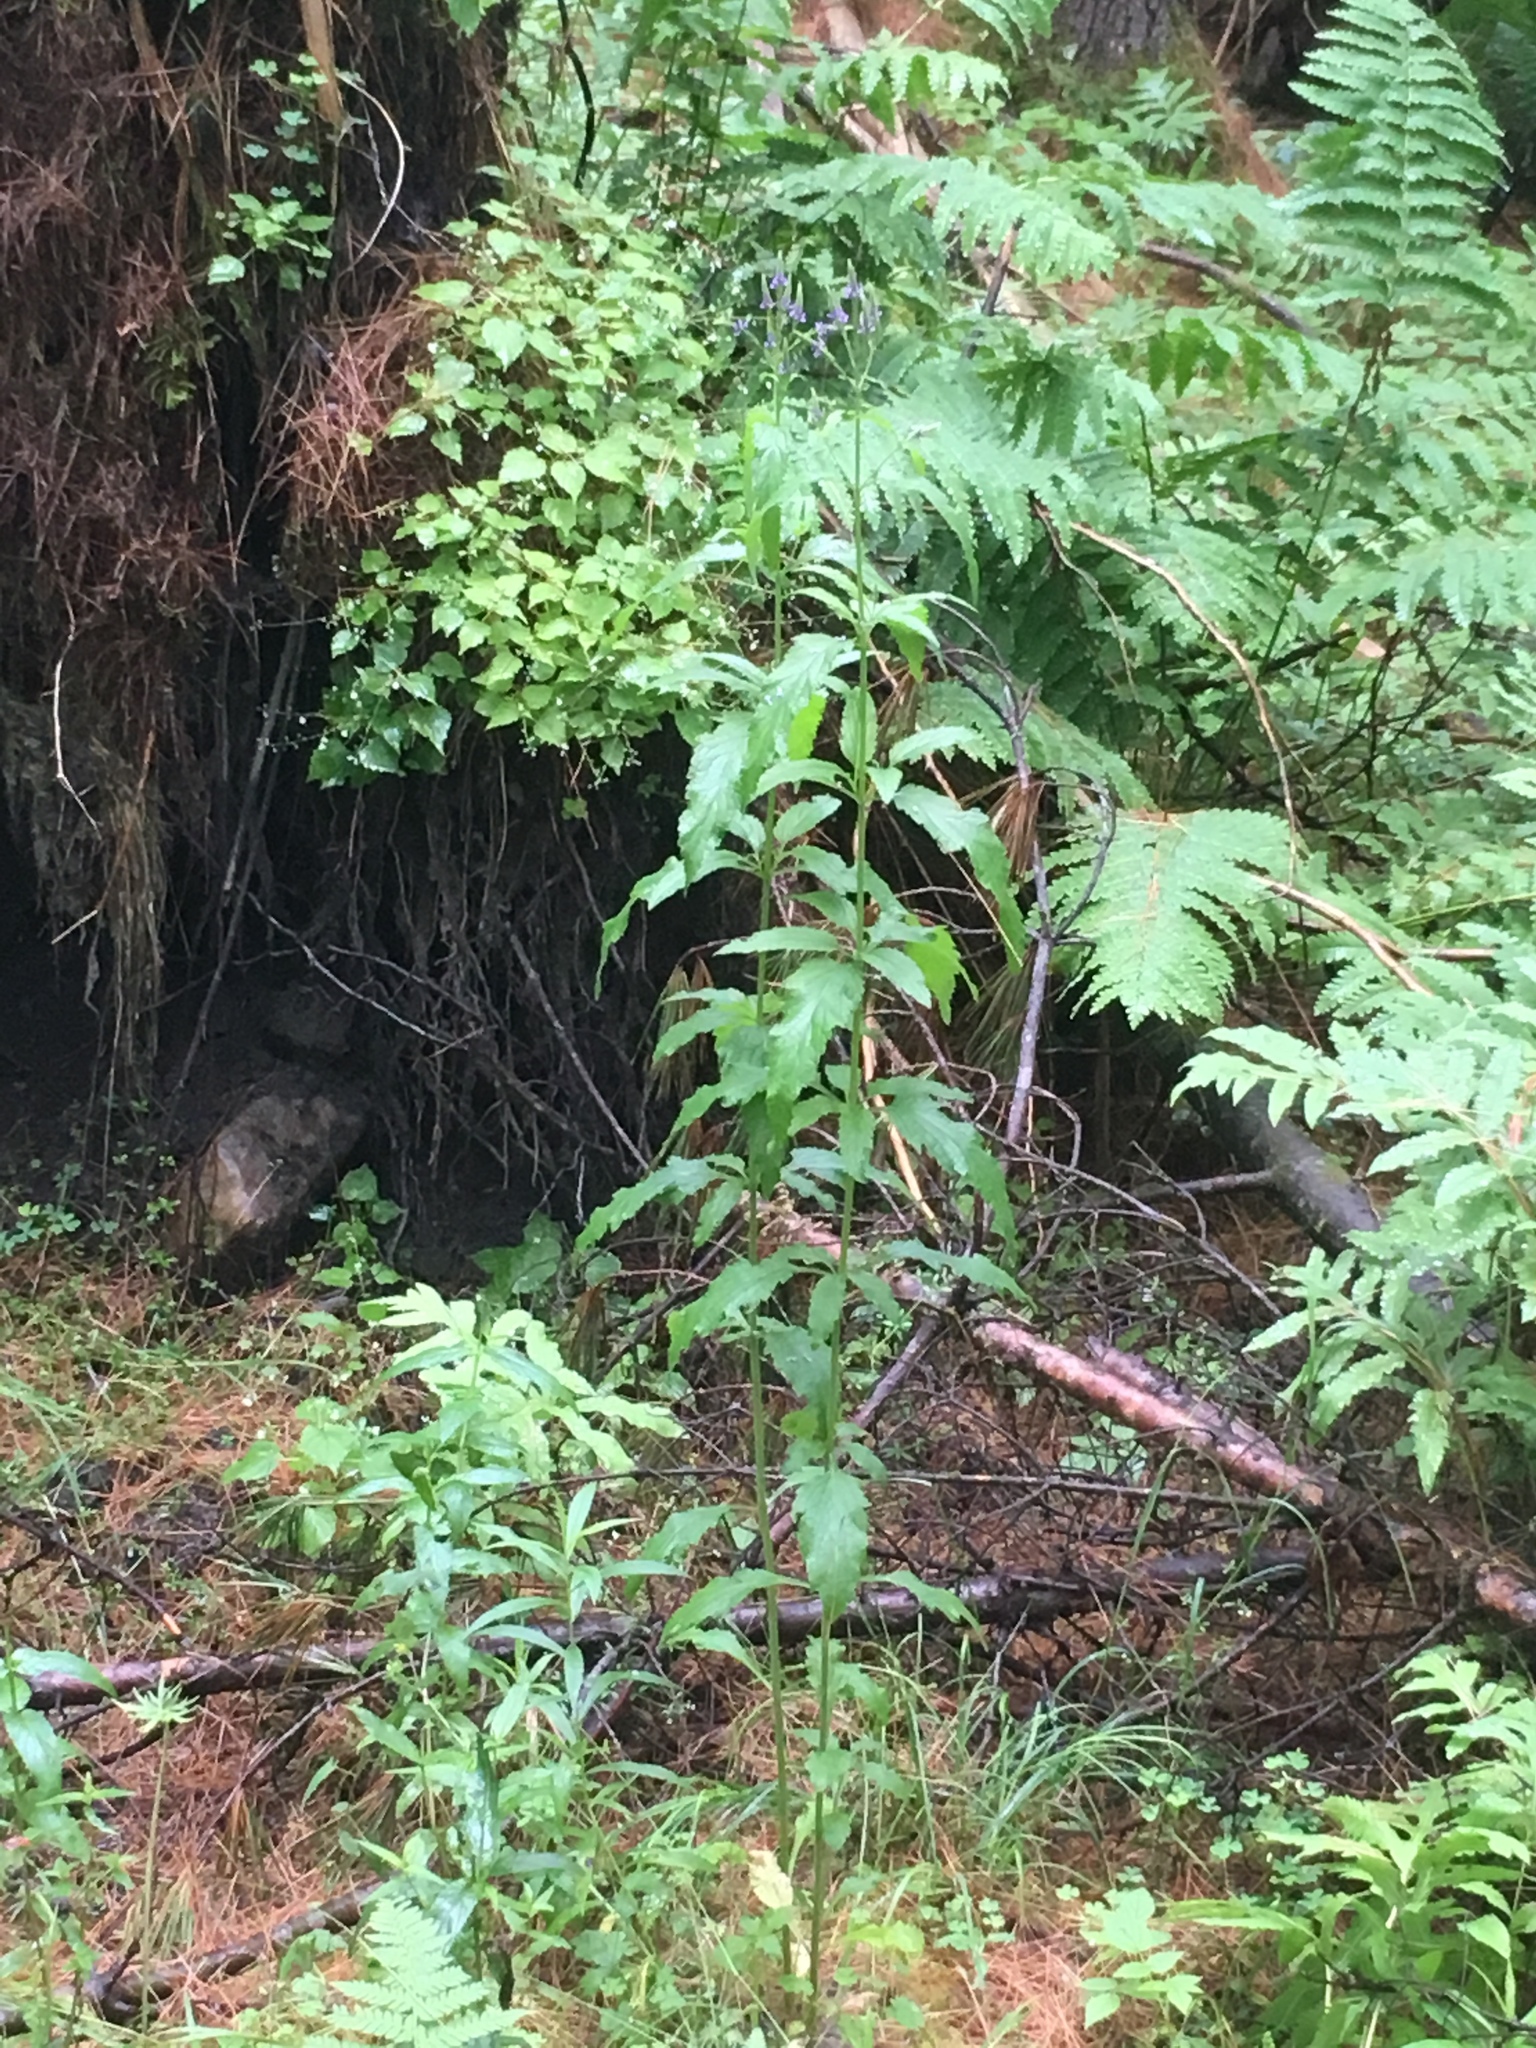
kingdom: Plantae
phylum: Tracheophyta
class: Magnoliopsida
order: Lamiales
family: Verbenaceae
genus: Verbena
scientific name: Verbena hastata
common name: American blue vervain
